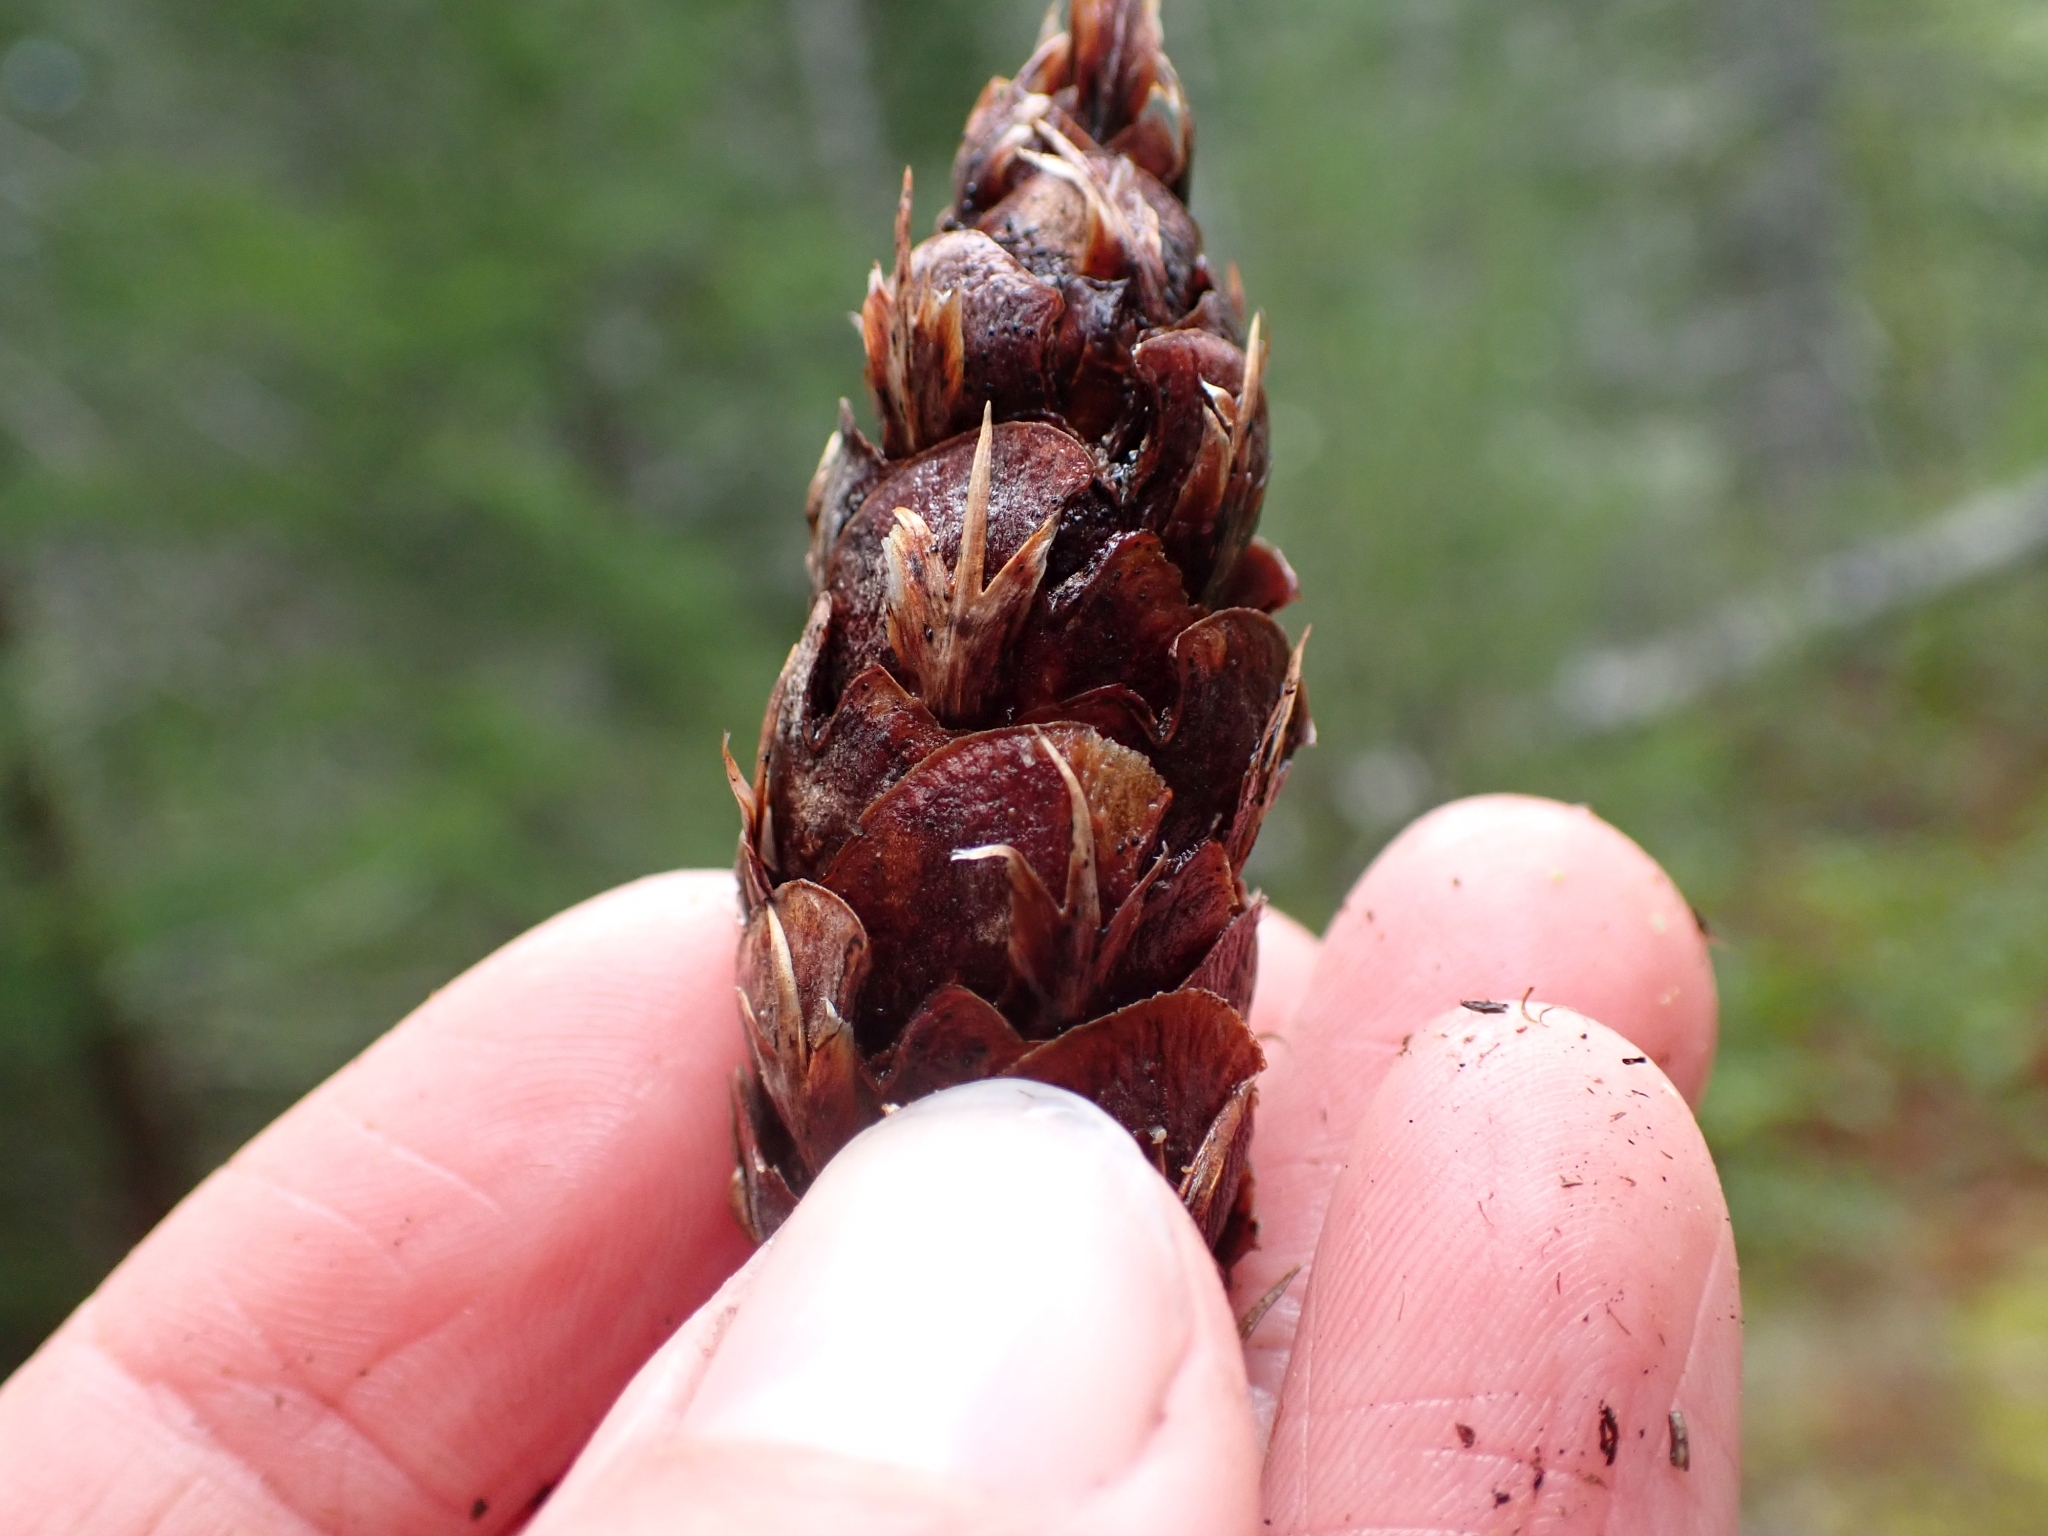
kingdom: Plantae
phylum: Tracheophyta
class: Pinopsida
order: Pinales
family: Pinaceae
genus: Pseudotsuga
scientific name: Pseudotsuga menziesii
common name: Douglas fir
